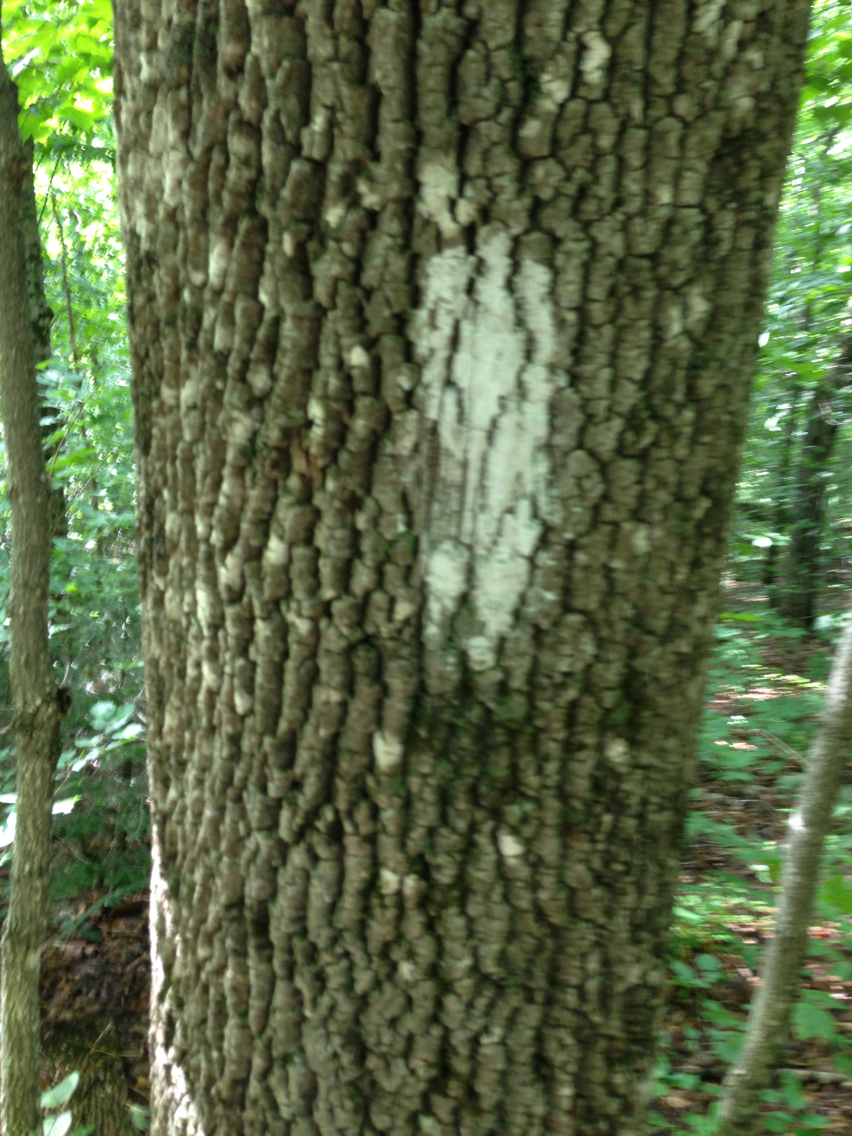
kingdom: Plantae
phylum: Tracheophyta
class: Magnoliopsida
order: Lamiales
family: Oleaceae
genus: Fraxinus
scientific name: Fraxinus americana
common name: White ash
